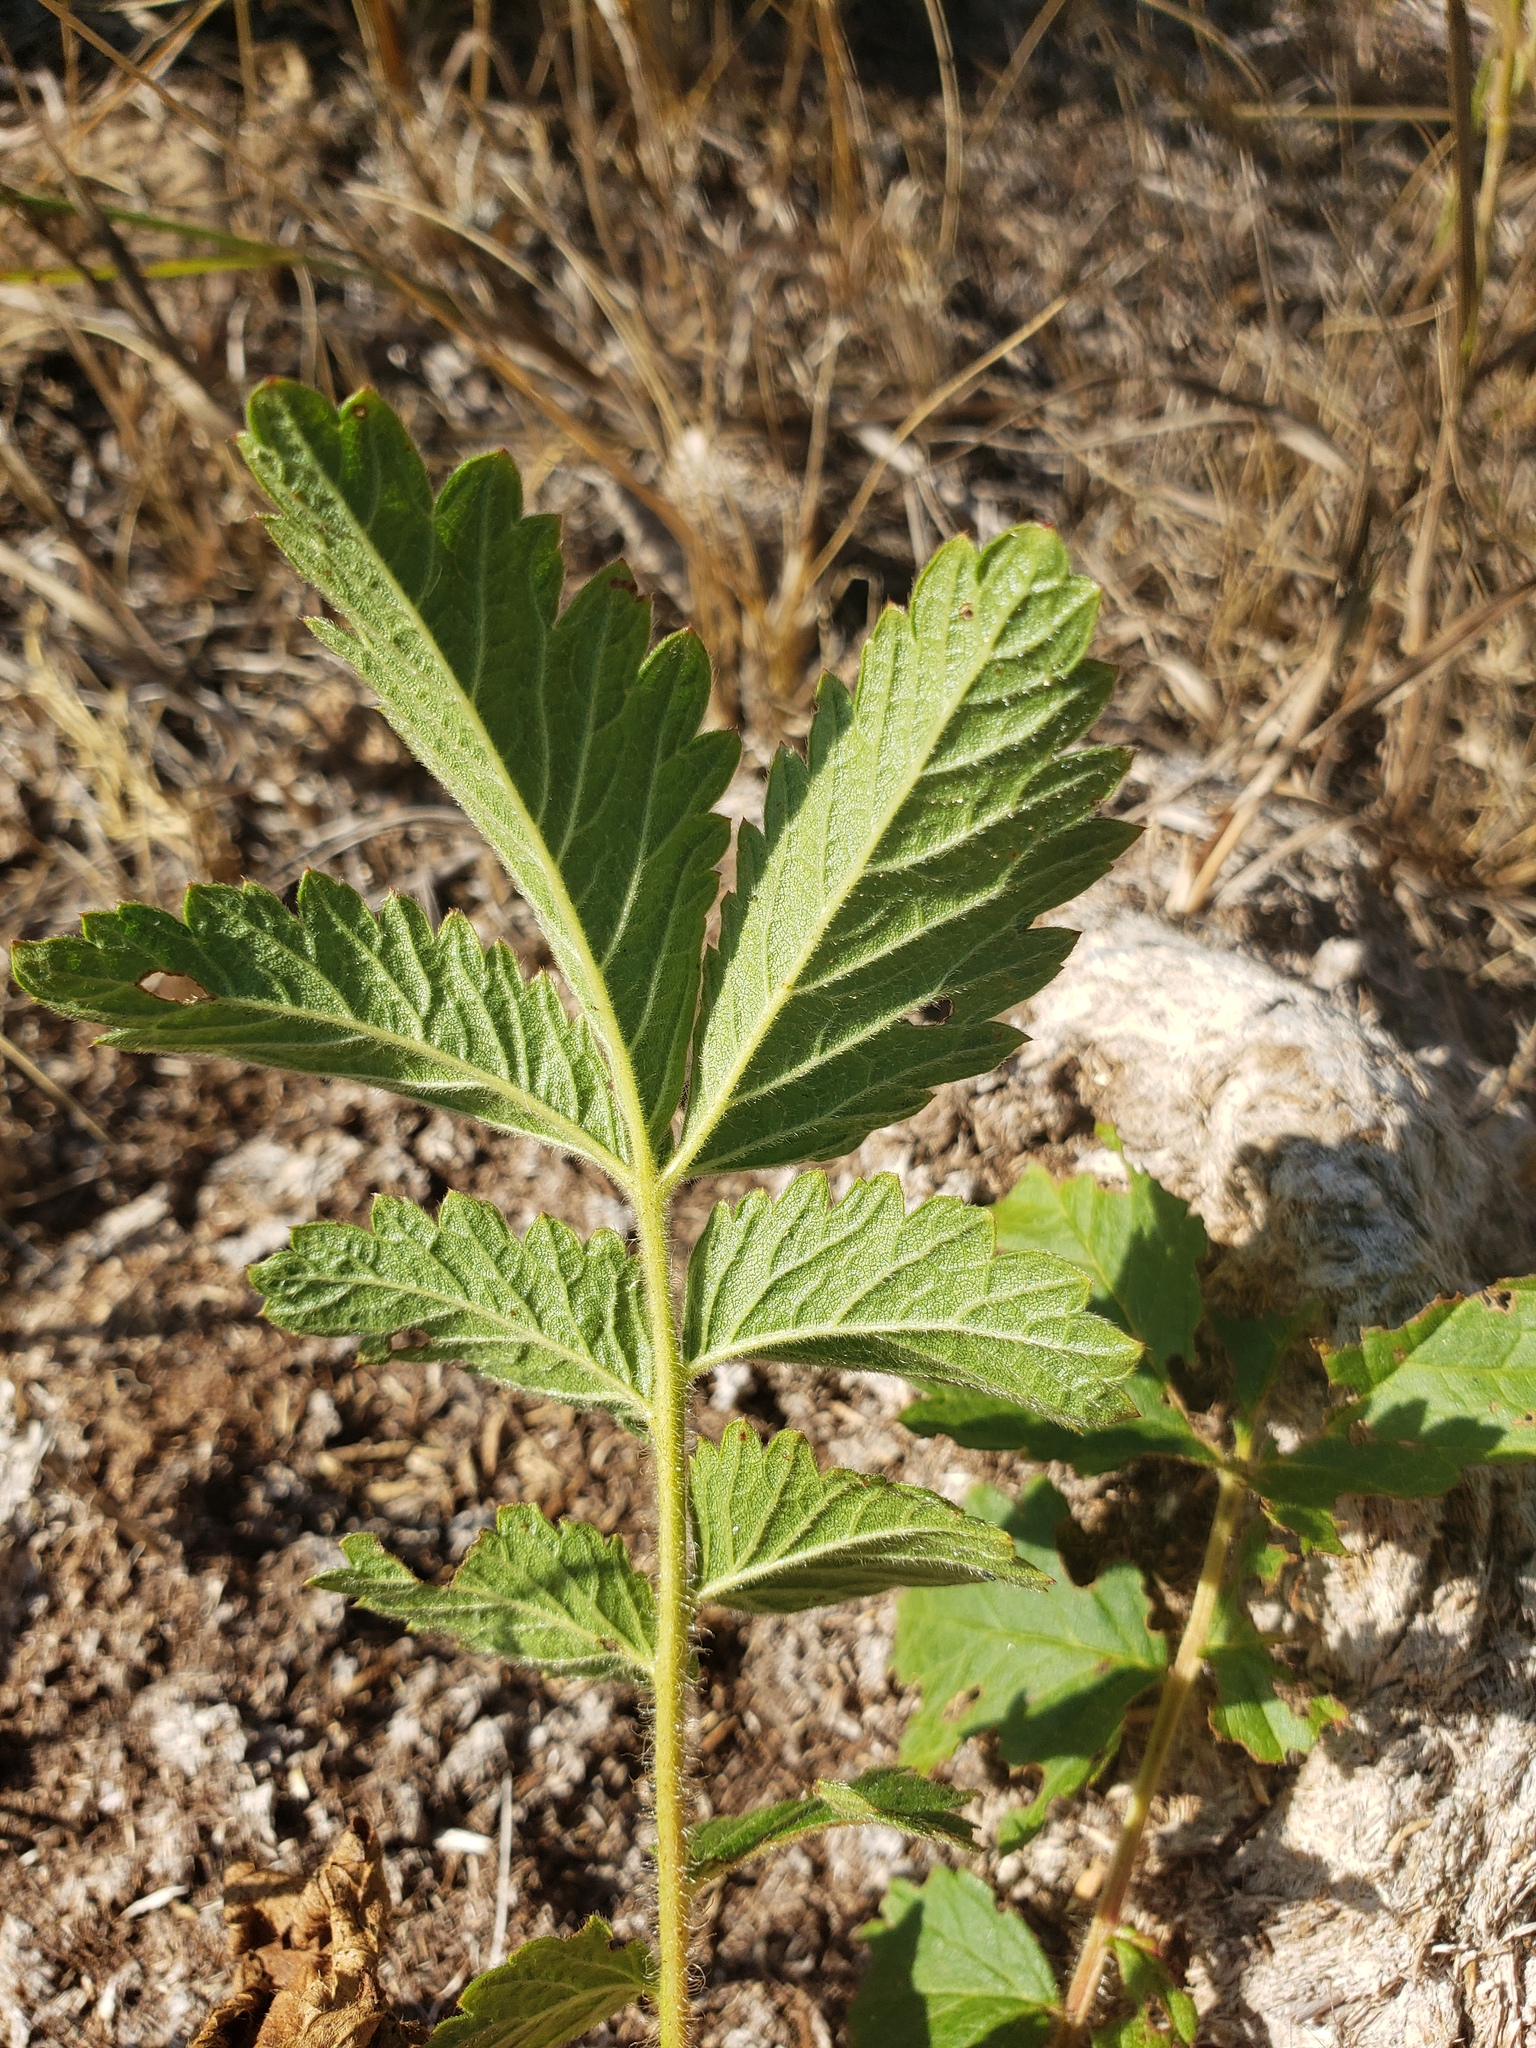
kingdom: Plantae
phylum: Tracheophyta
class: Magnoliopsida
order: Rosales
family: Rosaceae
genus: Drymocallis
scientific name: Drymocallis arguta
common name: Tall cinquefoil
